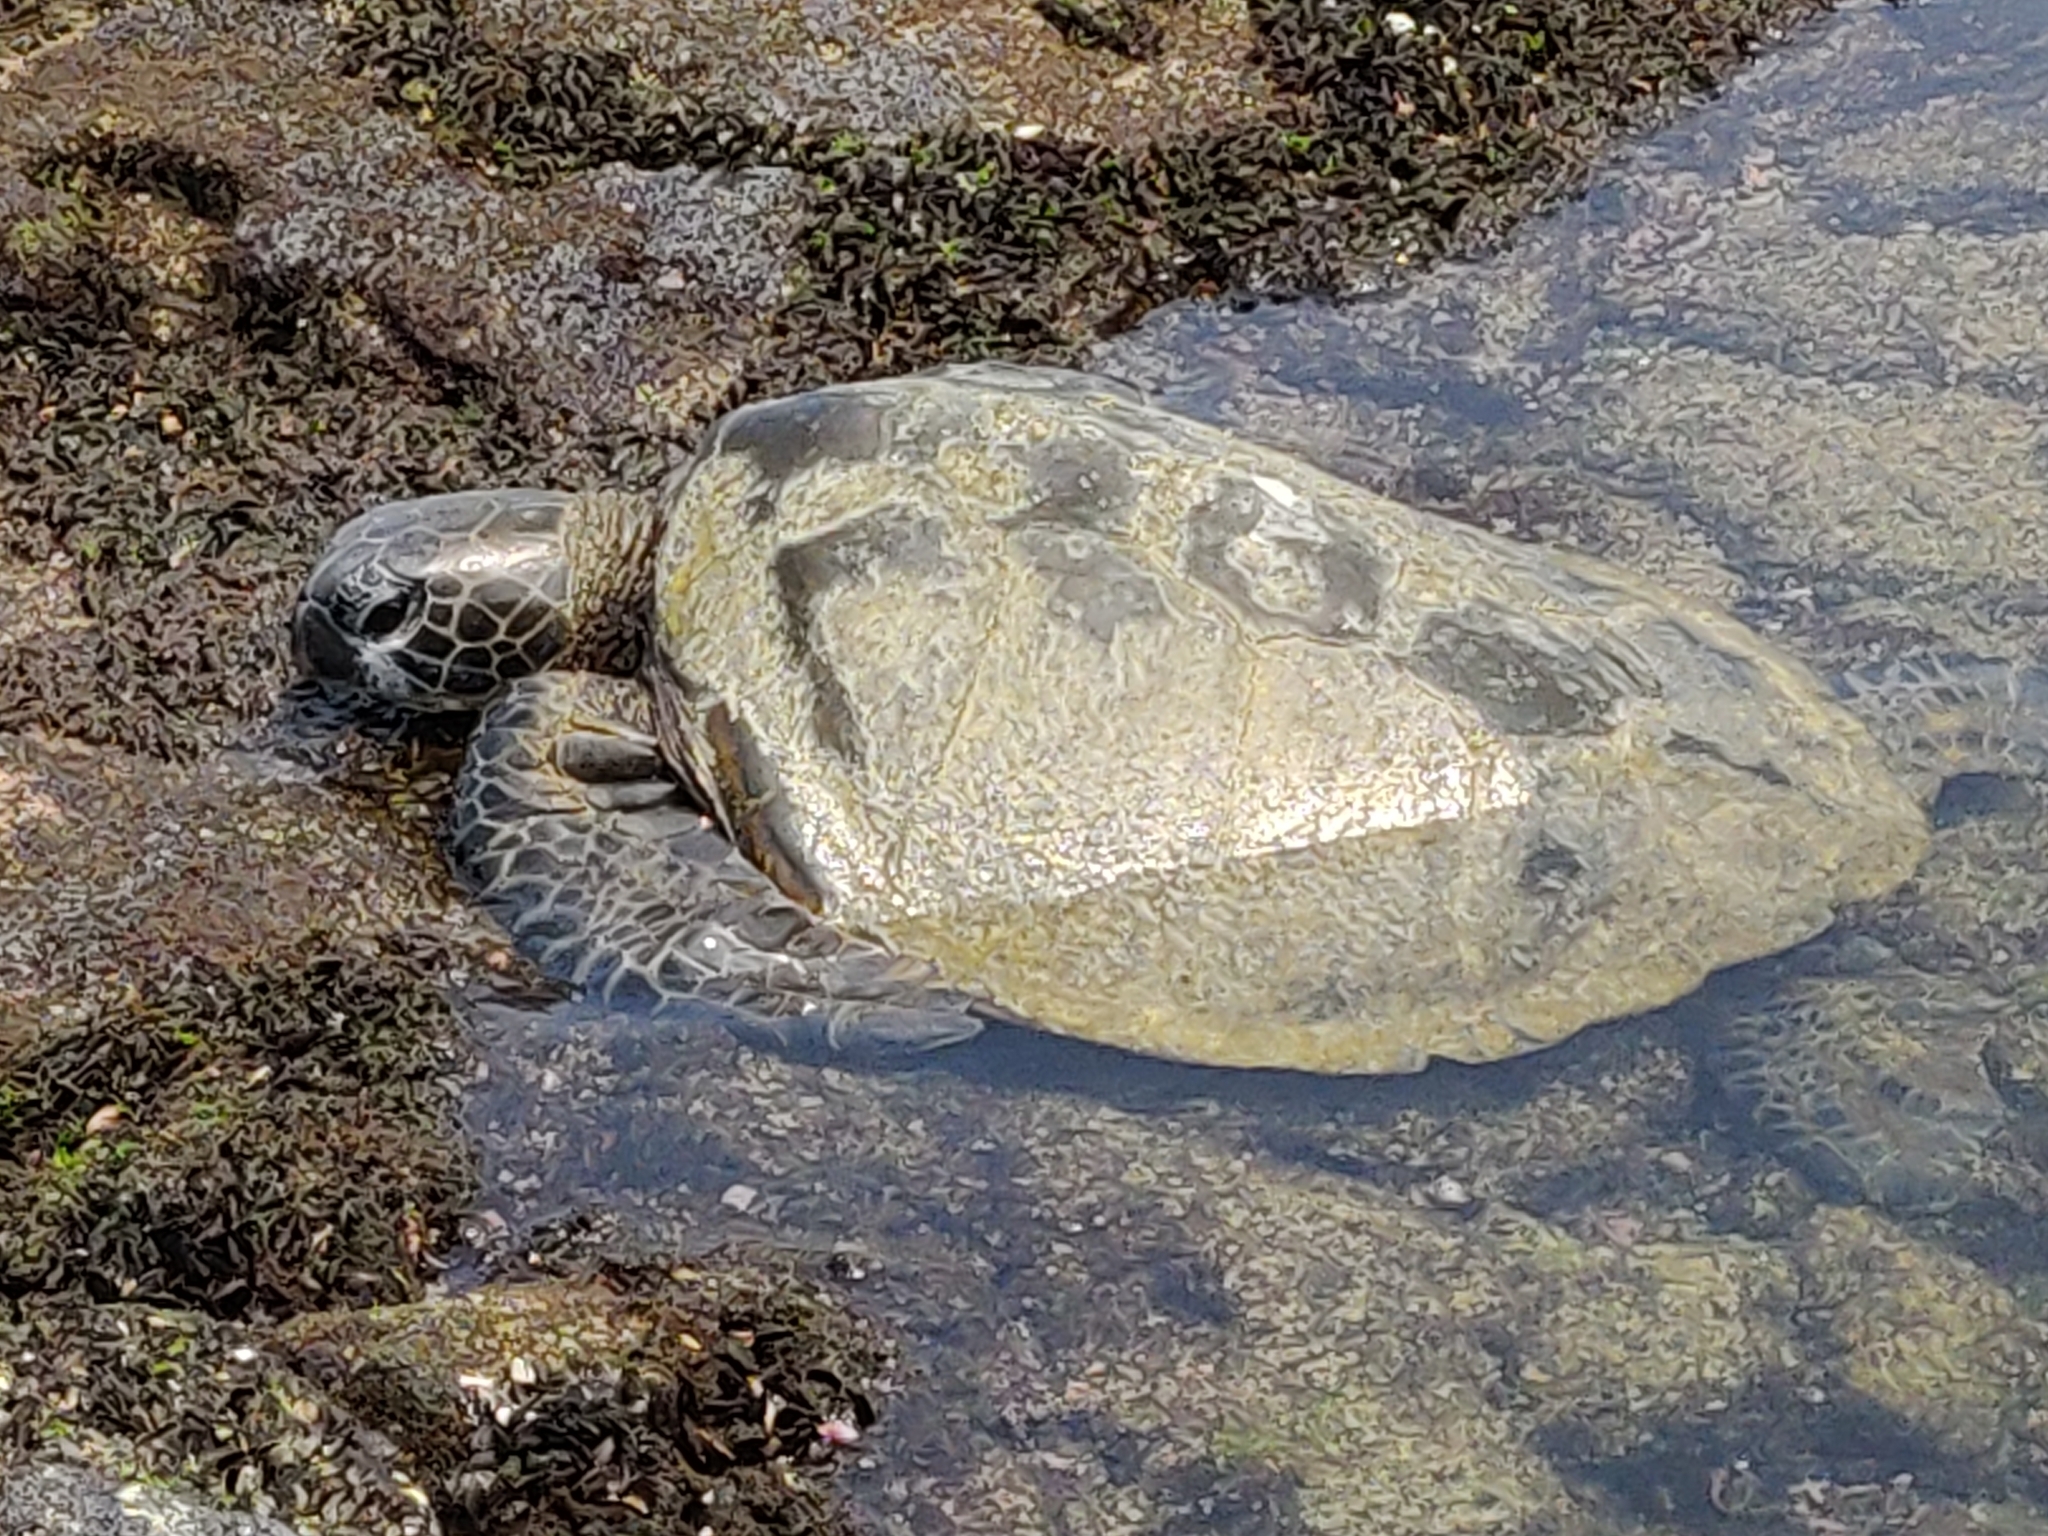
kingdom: Animalia
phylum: Chordata
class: Testudines
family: Cheloniidae
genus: Chelonia
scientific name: Chelonia mydas
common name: Green turtle
